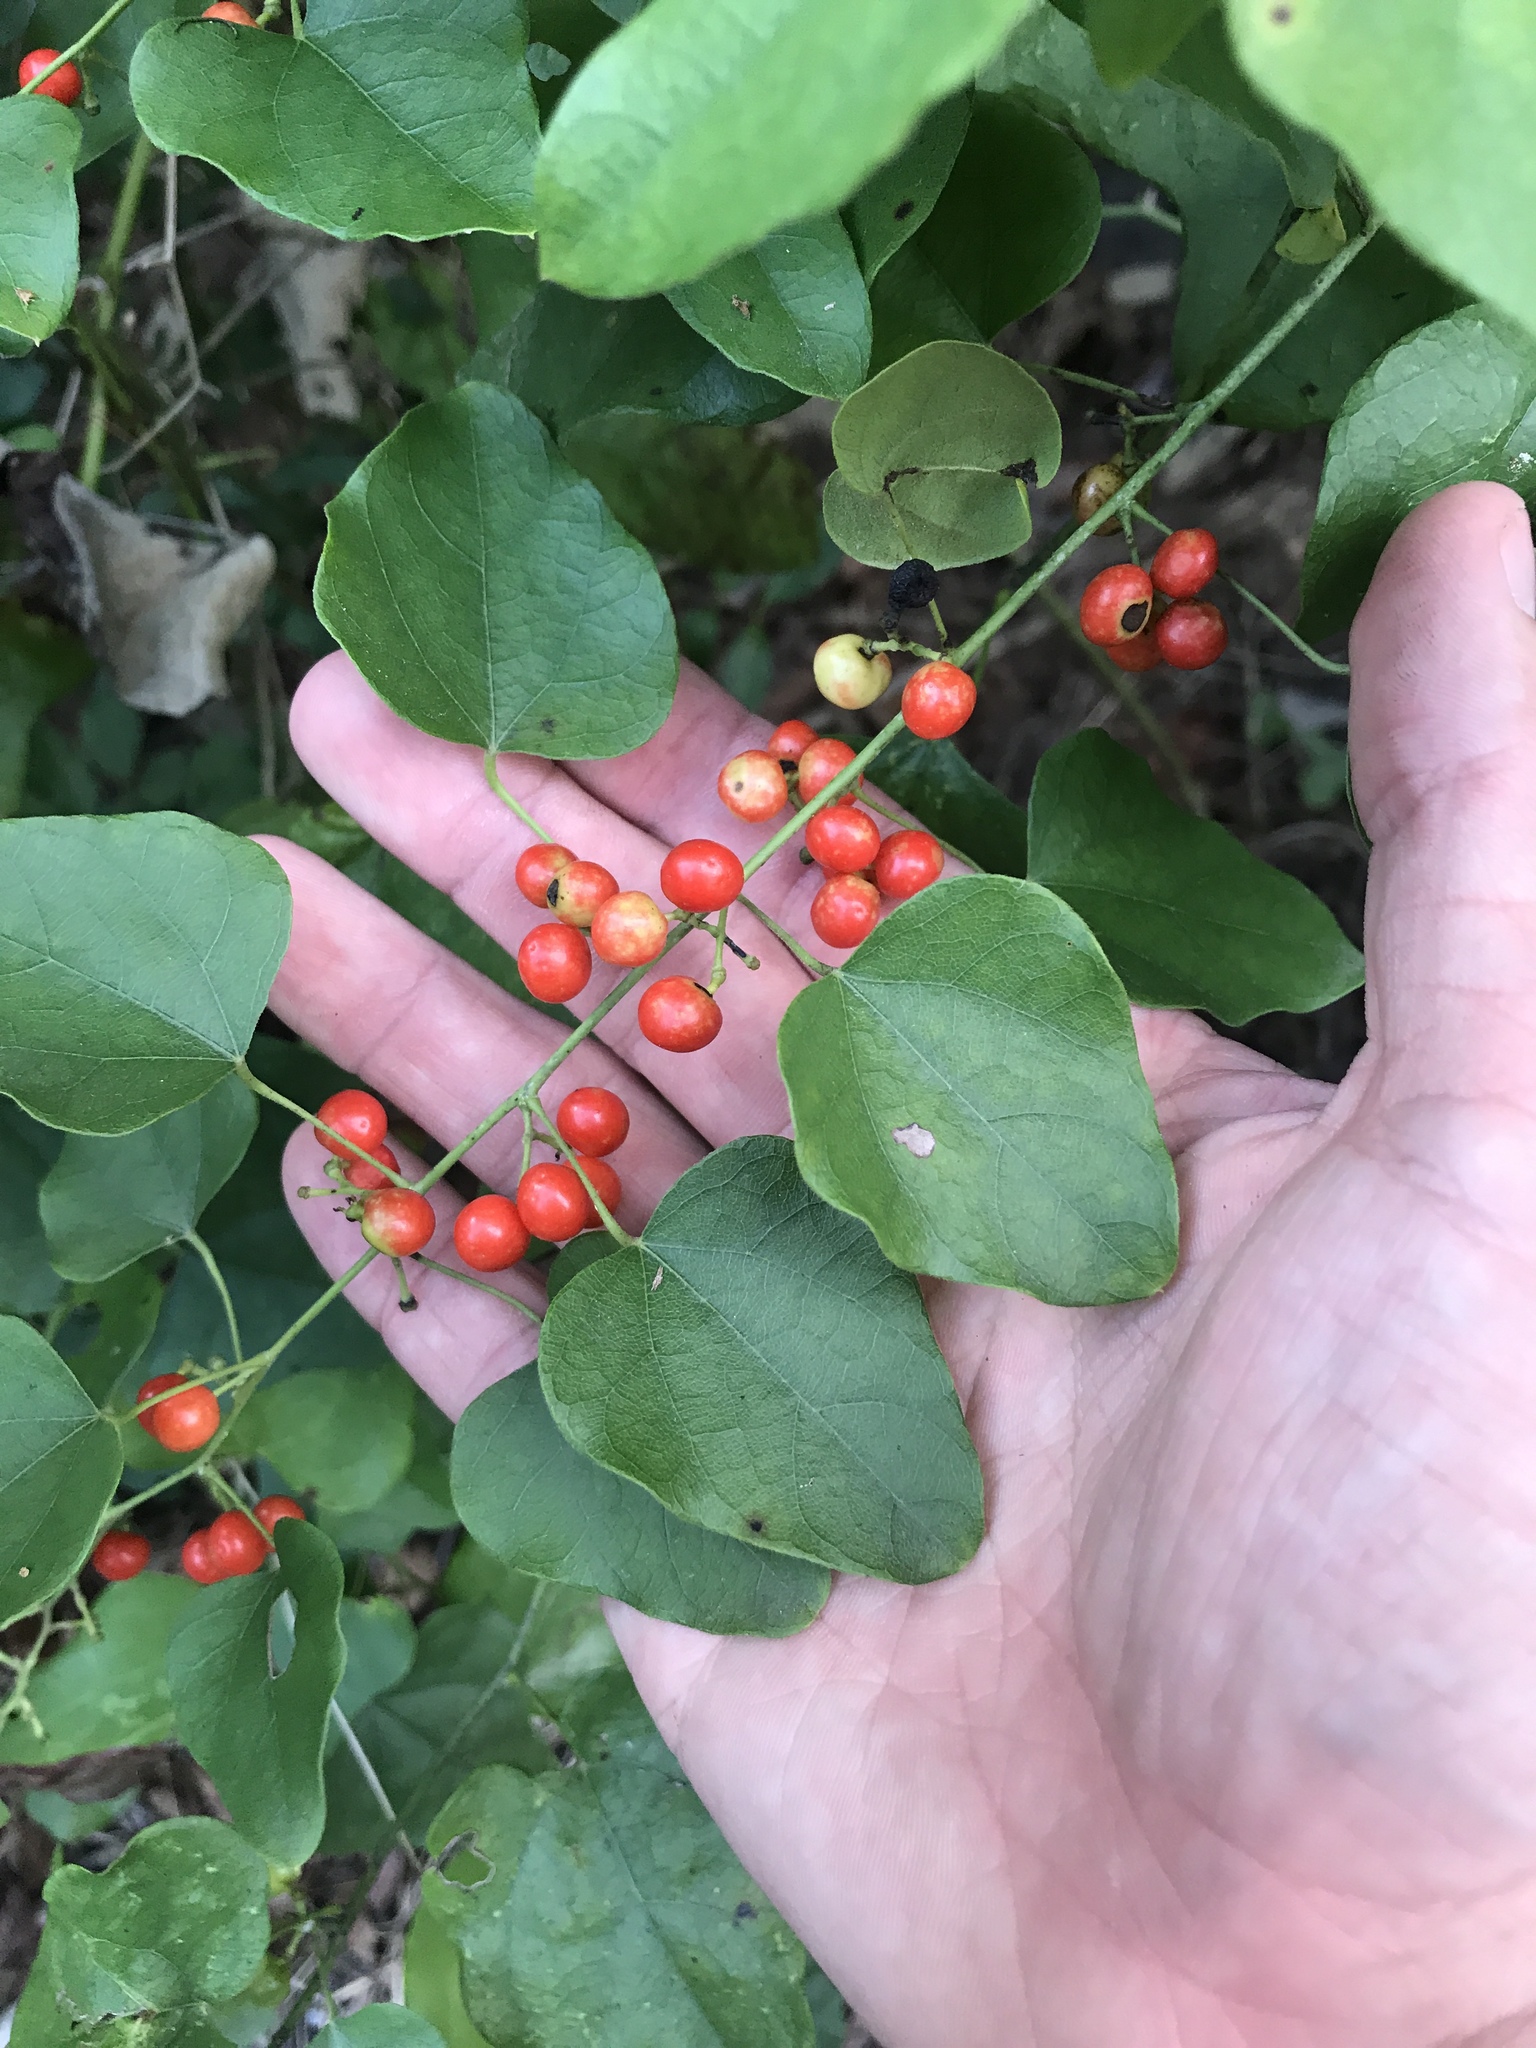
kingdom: Plantae
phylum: Tracheophyta
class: Magnoliopsida
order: Ranunculales
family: Menispermaceae
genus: Cocculus
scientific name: Cocculus carolinus
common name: Carolina moonseed
